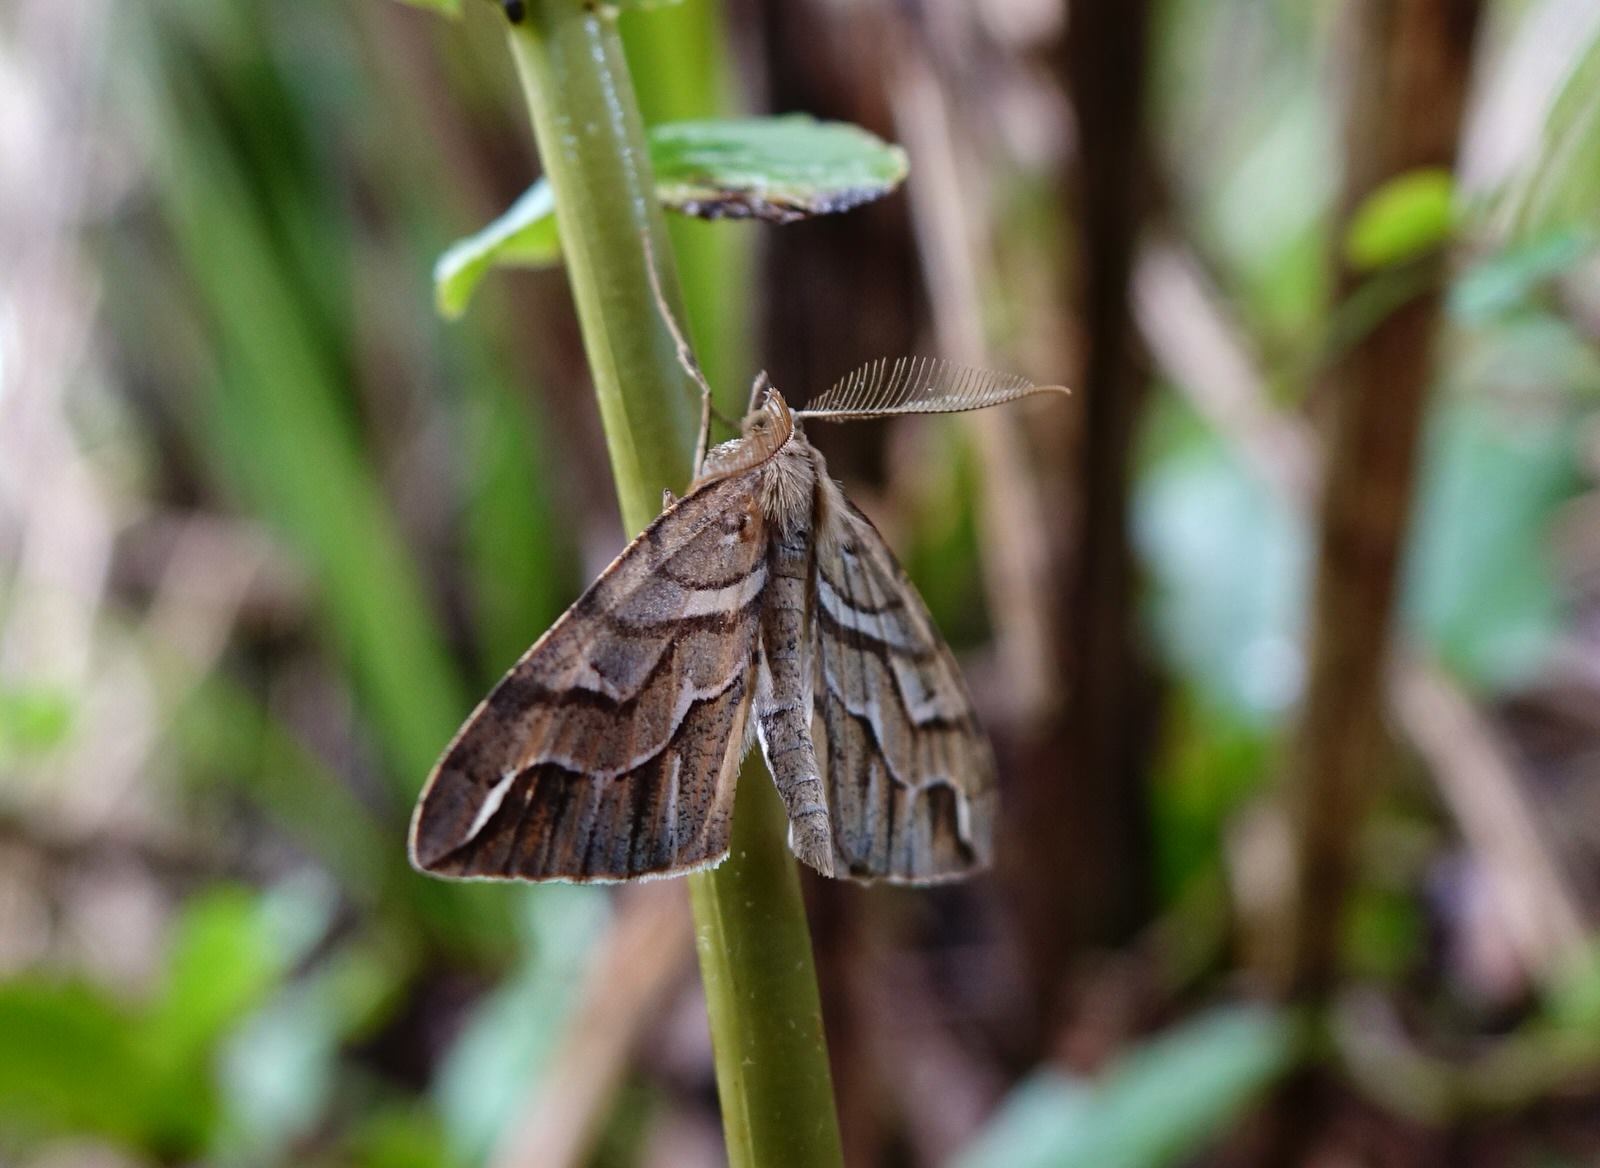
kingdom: Animalia
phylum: Arthropoda
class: Insecta
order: Lepidoptera
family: Geometridae
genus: Chalastra
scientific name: Chalastra aristarcha
